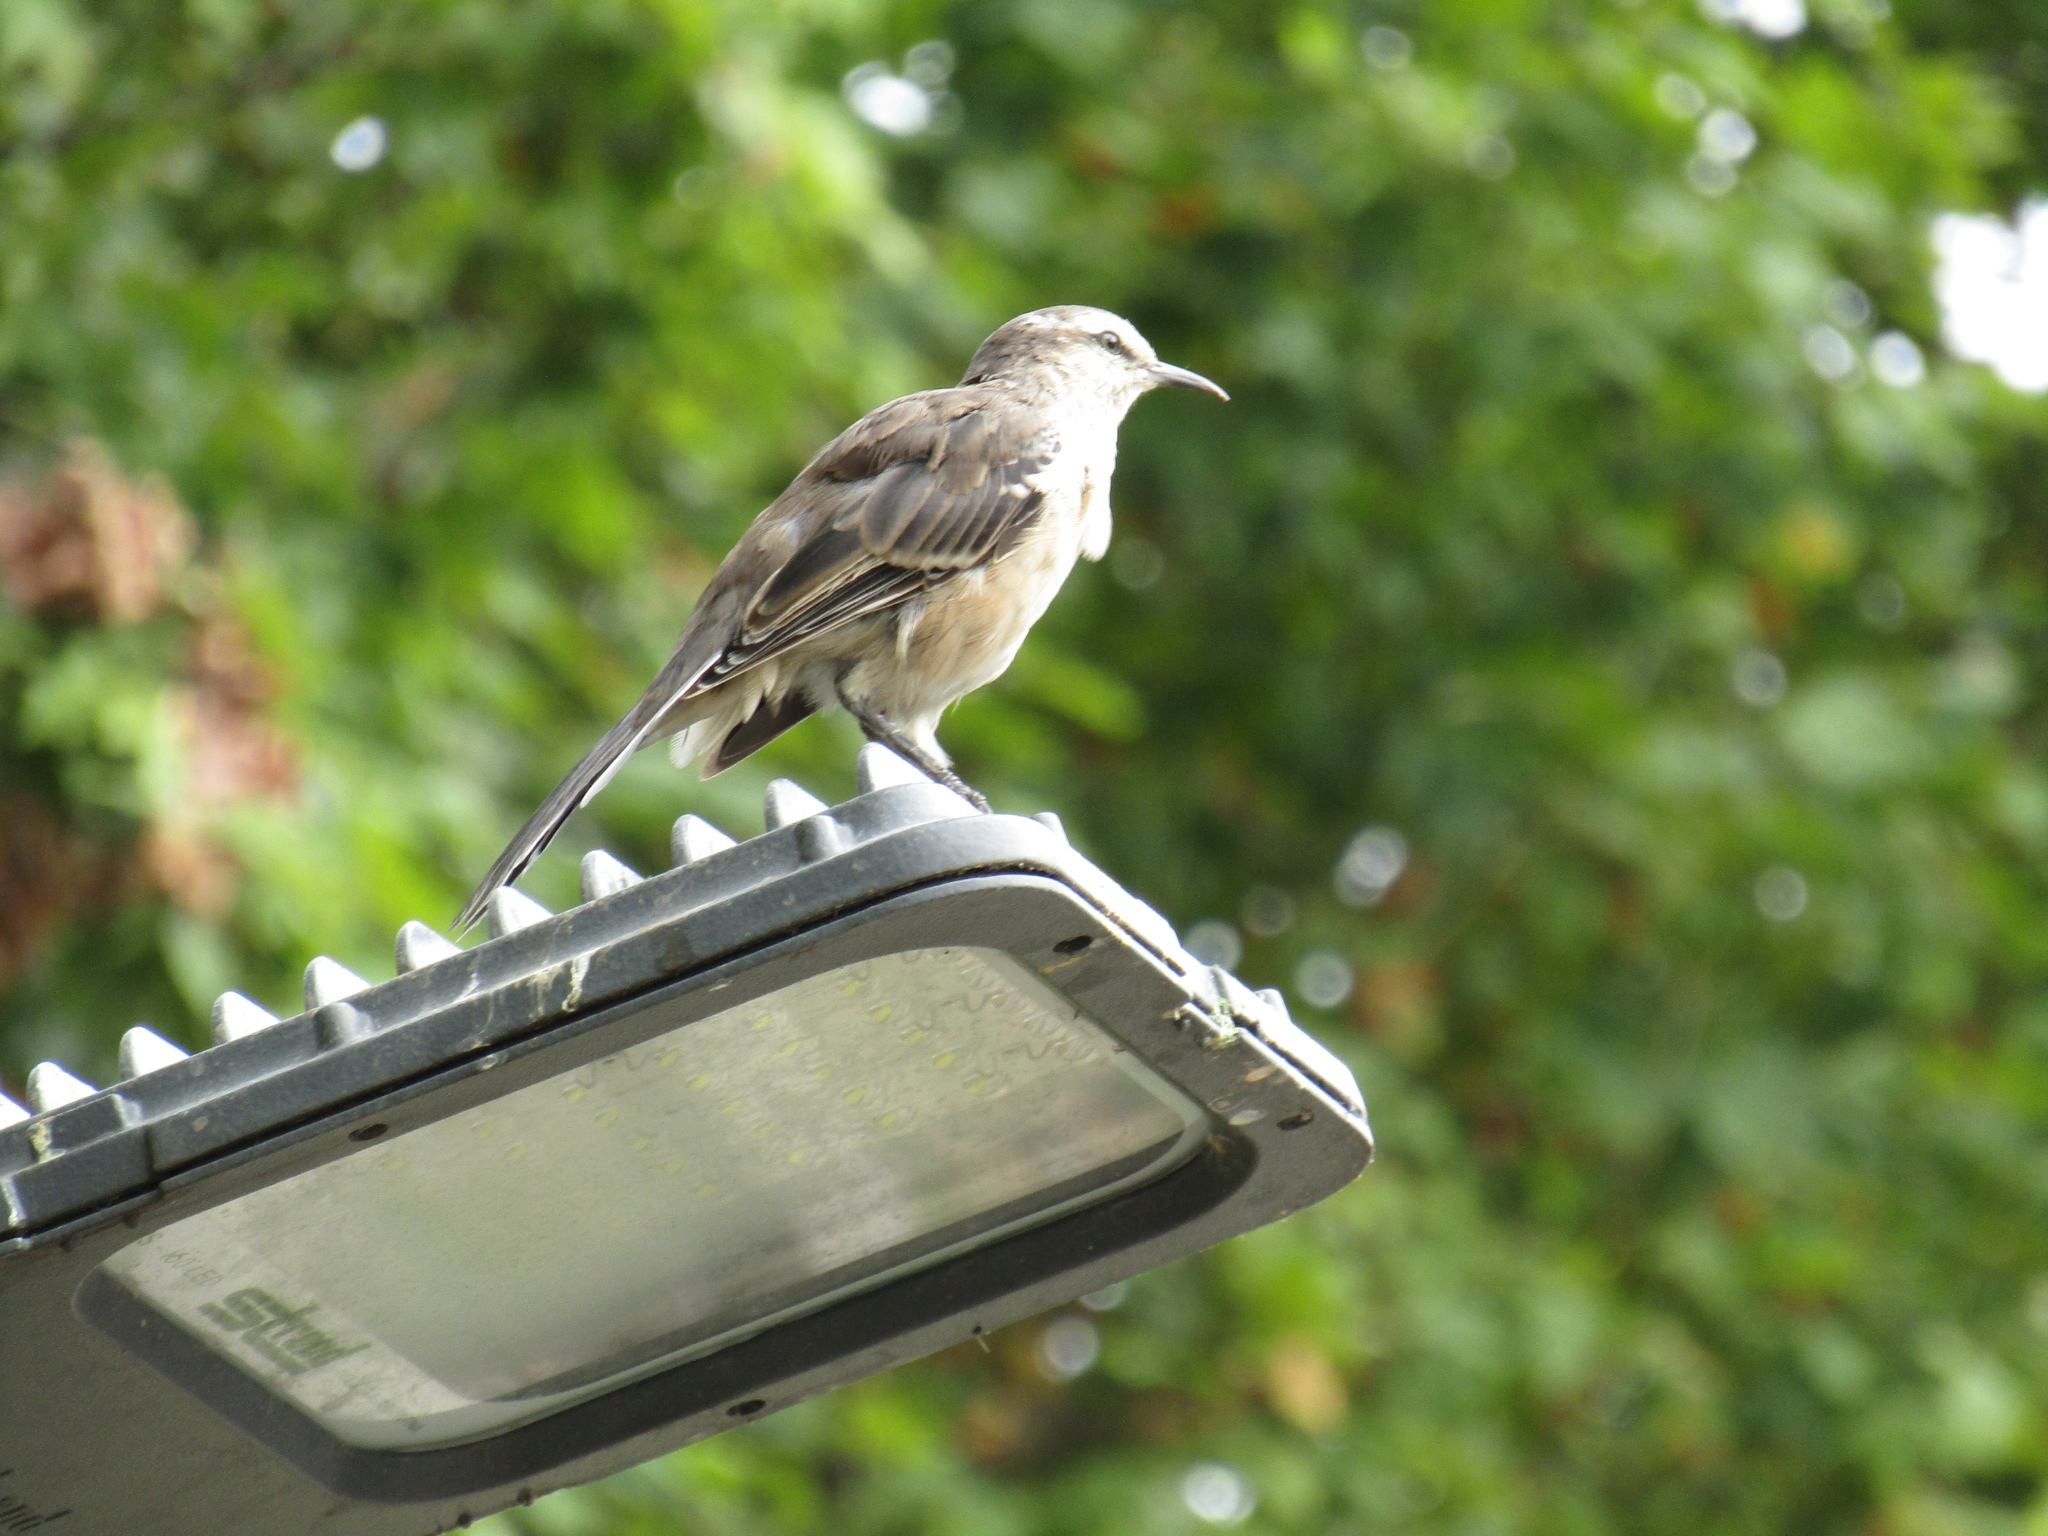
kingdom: Animalia
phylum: Chordata
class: Aves
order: Passeriformes
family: Mimidae
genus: Mimus
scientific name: Mimus saturninus
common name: Chalk-browed mockingbird
